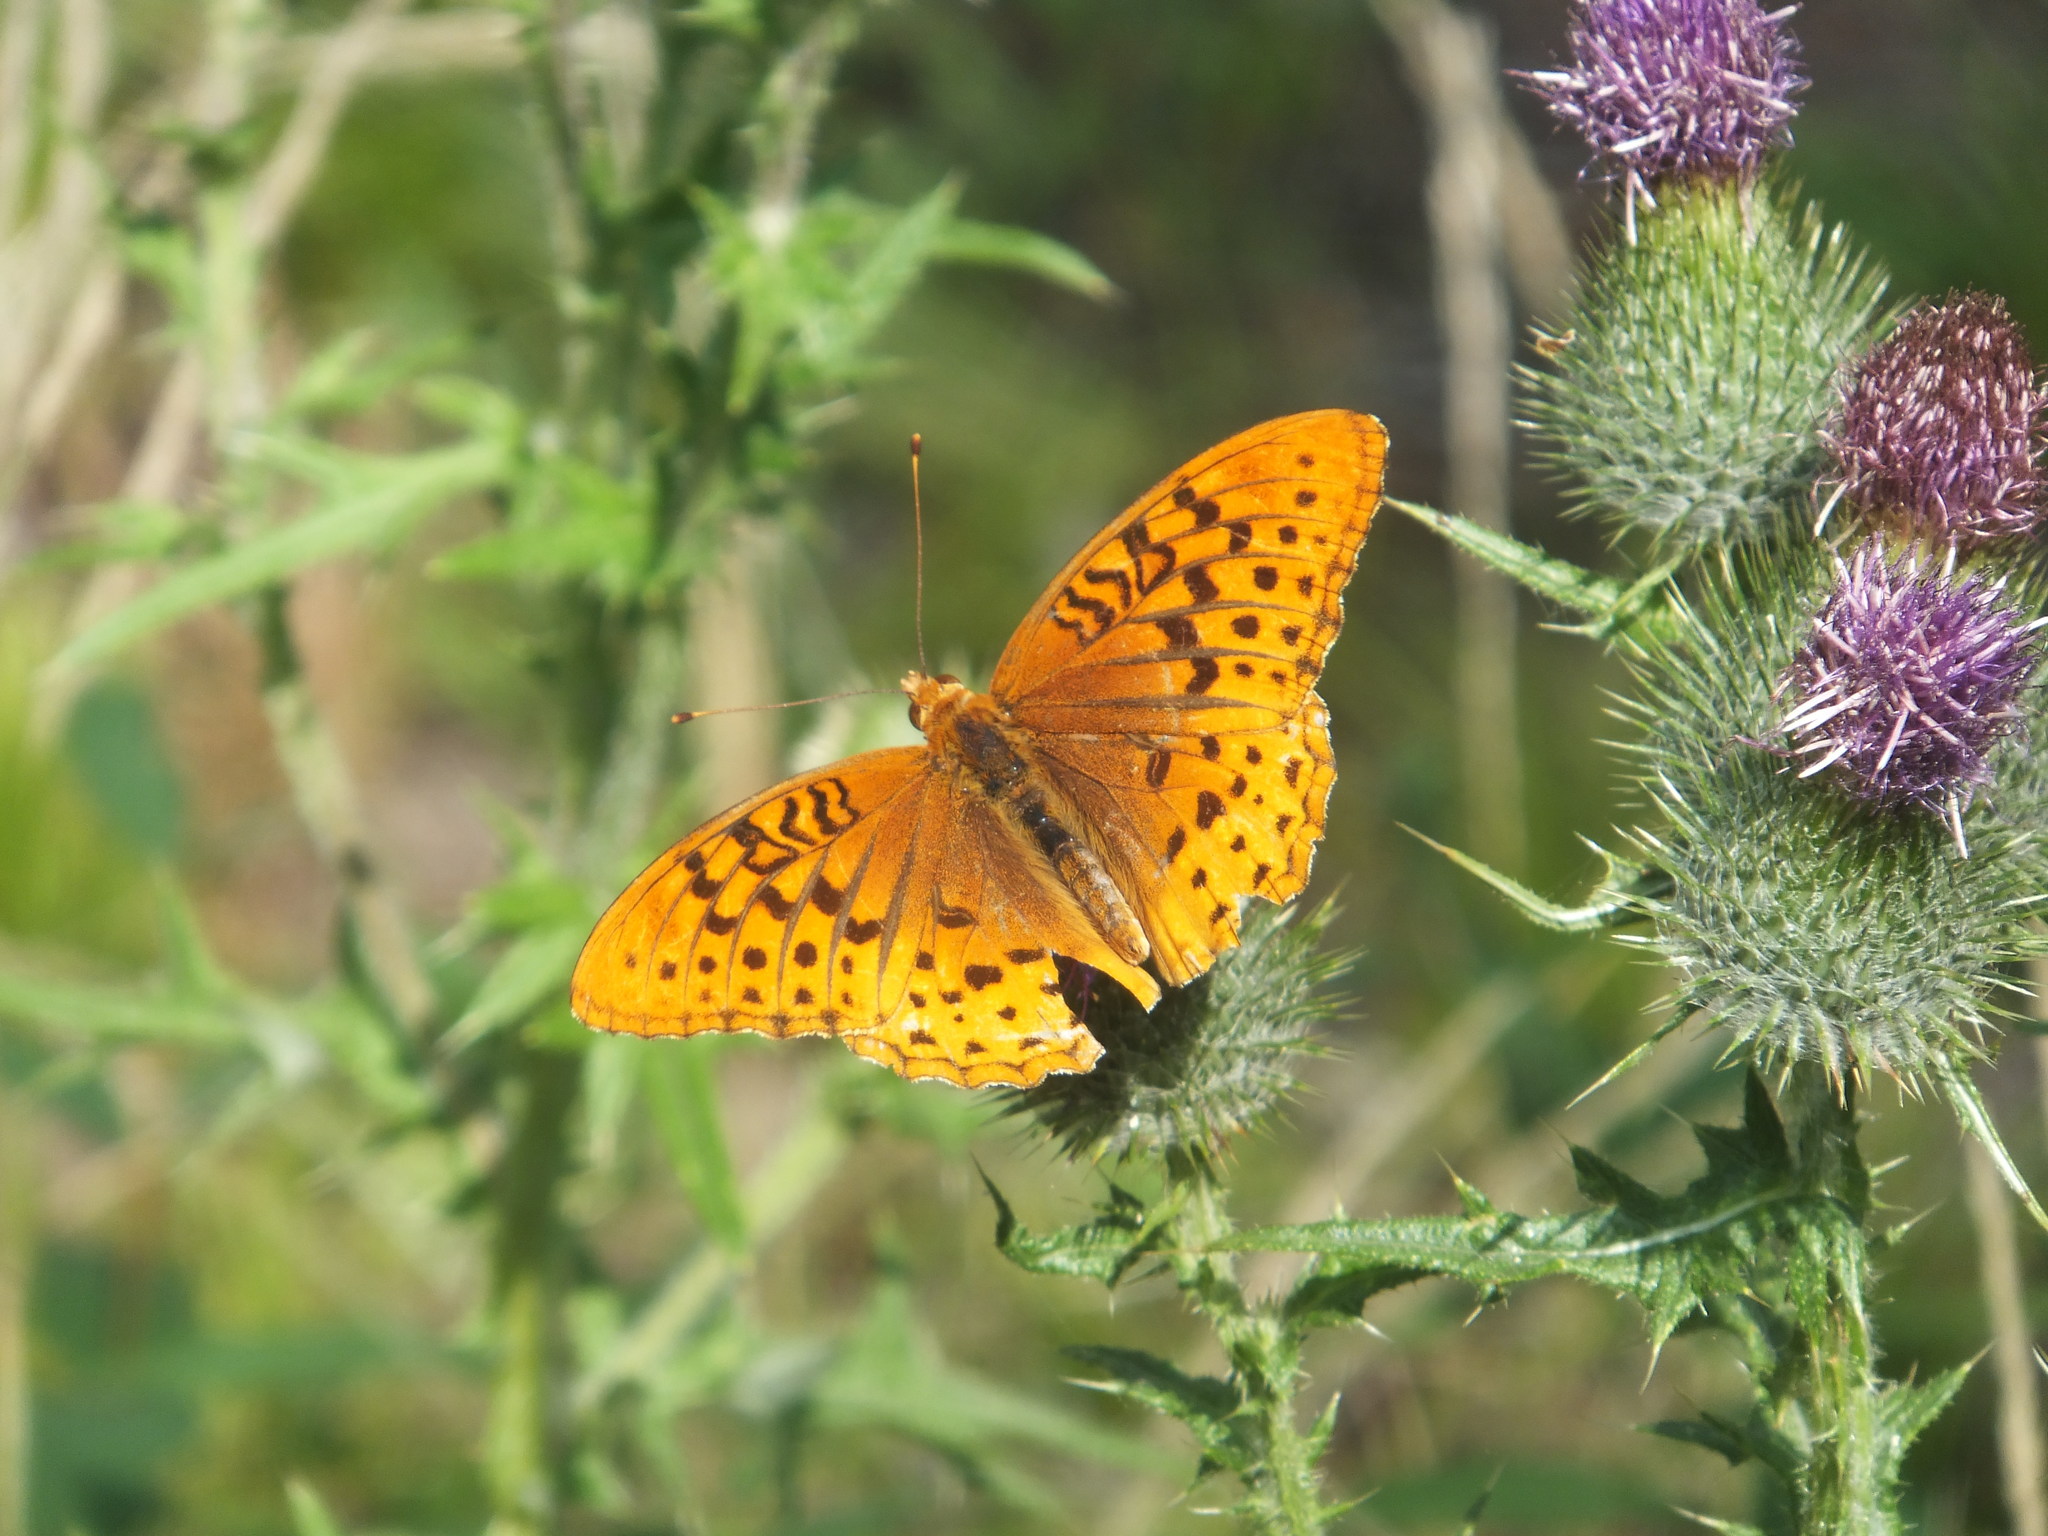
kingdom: Animalia
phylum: Arthropoda
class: Insecta
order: Lepidoptera
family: Nymphalidae
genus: Speyeria
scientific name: Speyeria cybele
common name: Great spangled fritillary
